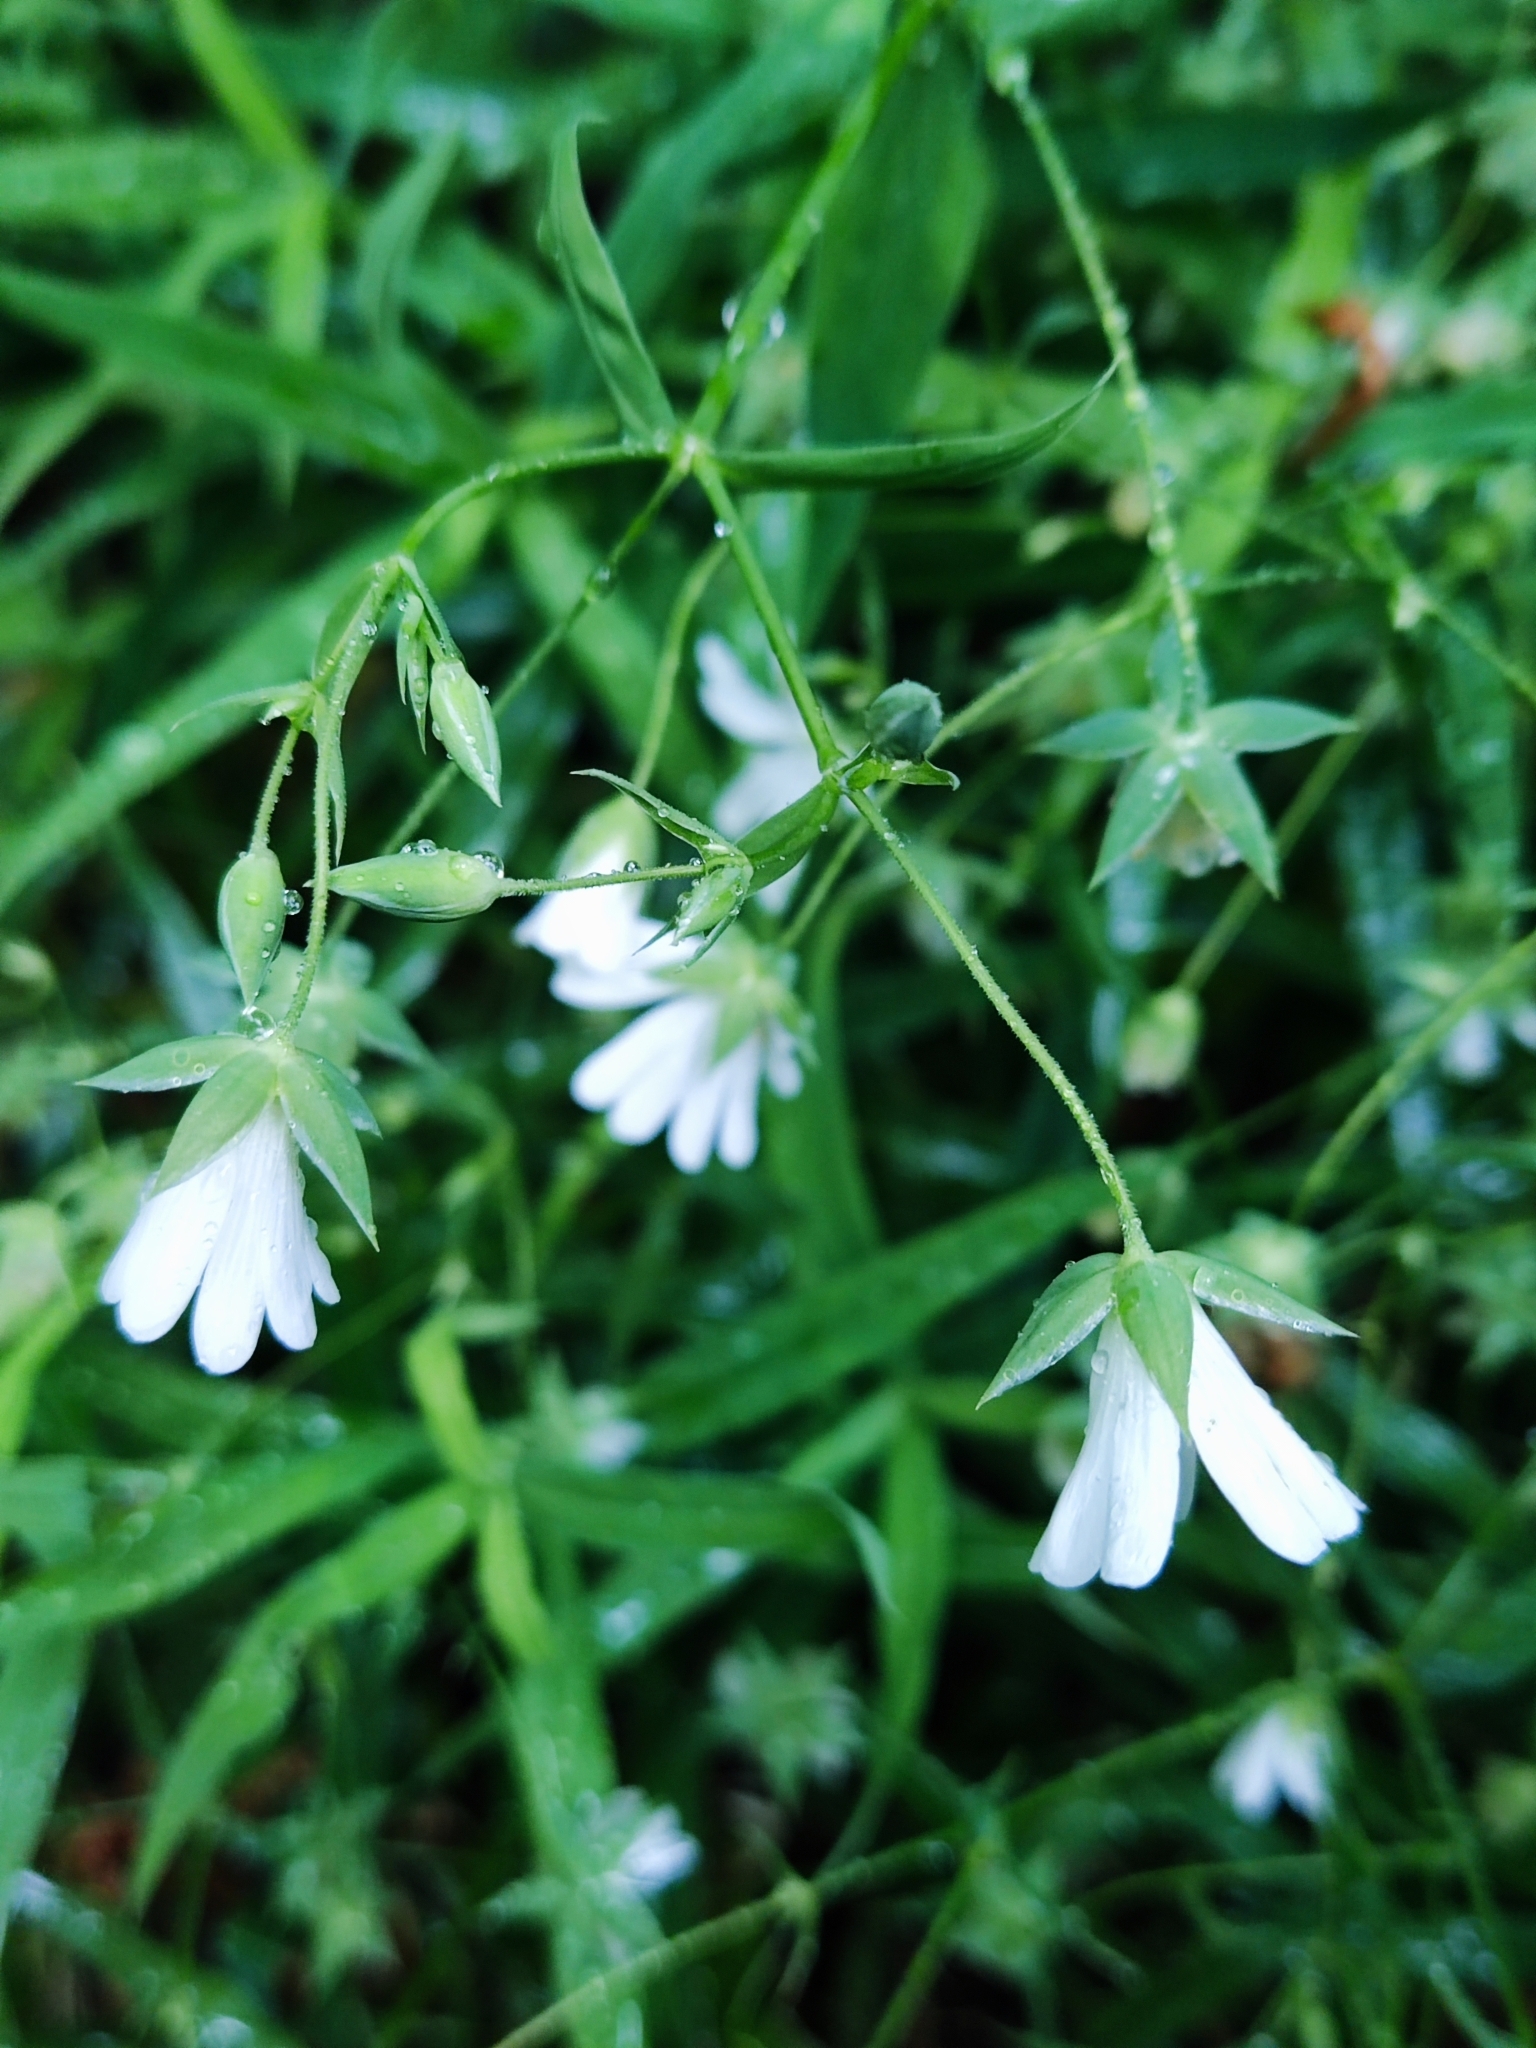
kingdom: Plantae
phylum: Tracheophyta
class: Magnoliopsida
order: Caryophyllales
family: Caryophyllaceae
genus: Rabelera
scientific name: Rabelera holostea
